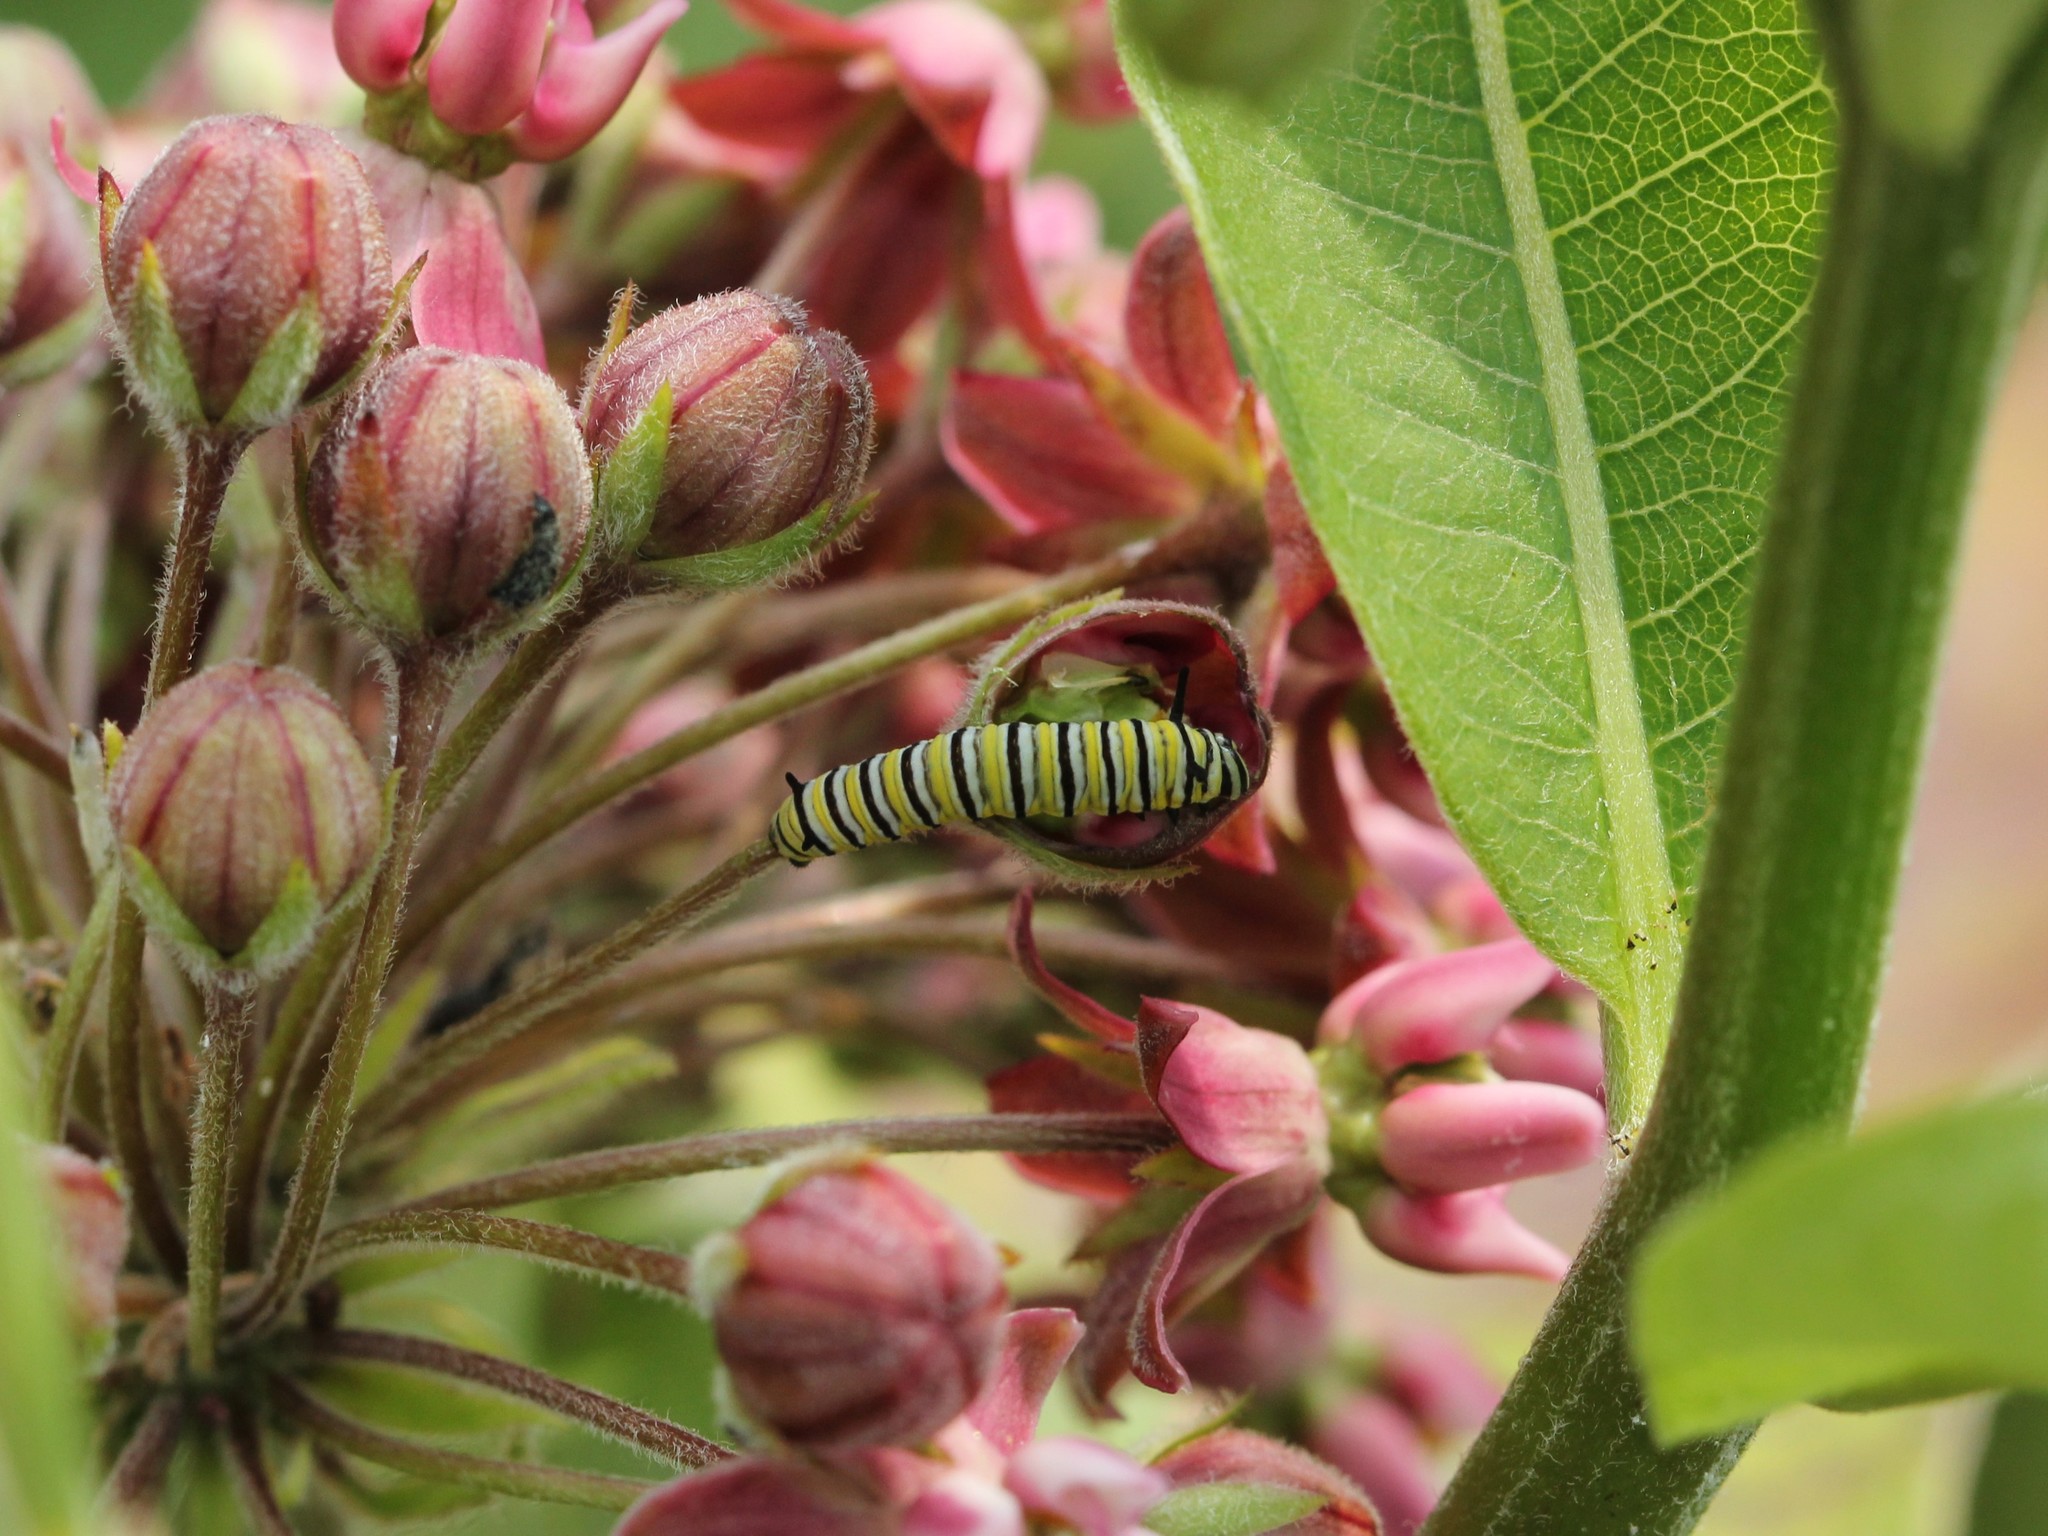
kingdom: Animalia
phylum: Arthropoda
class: Insecta
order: Lepidoptera
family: Nymphalidae
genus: Danaus
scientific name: Danaus plexippus
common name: Monarch
